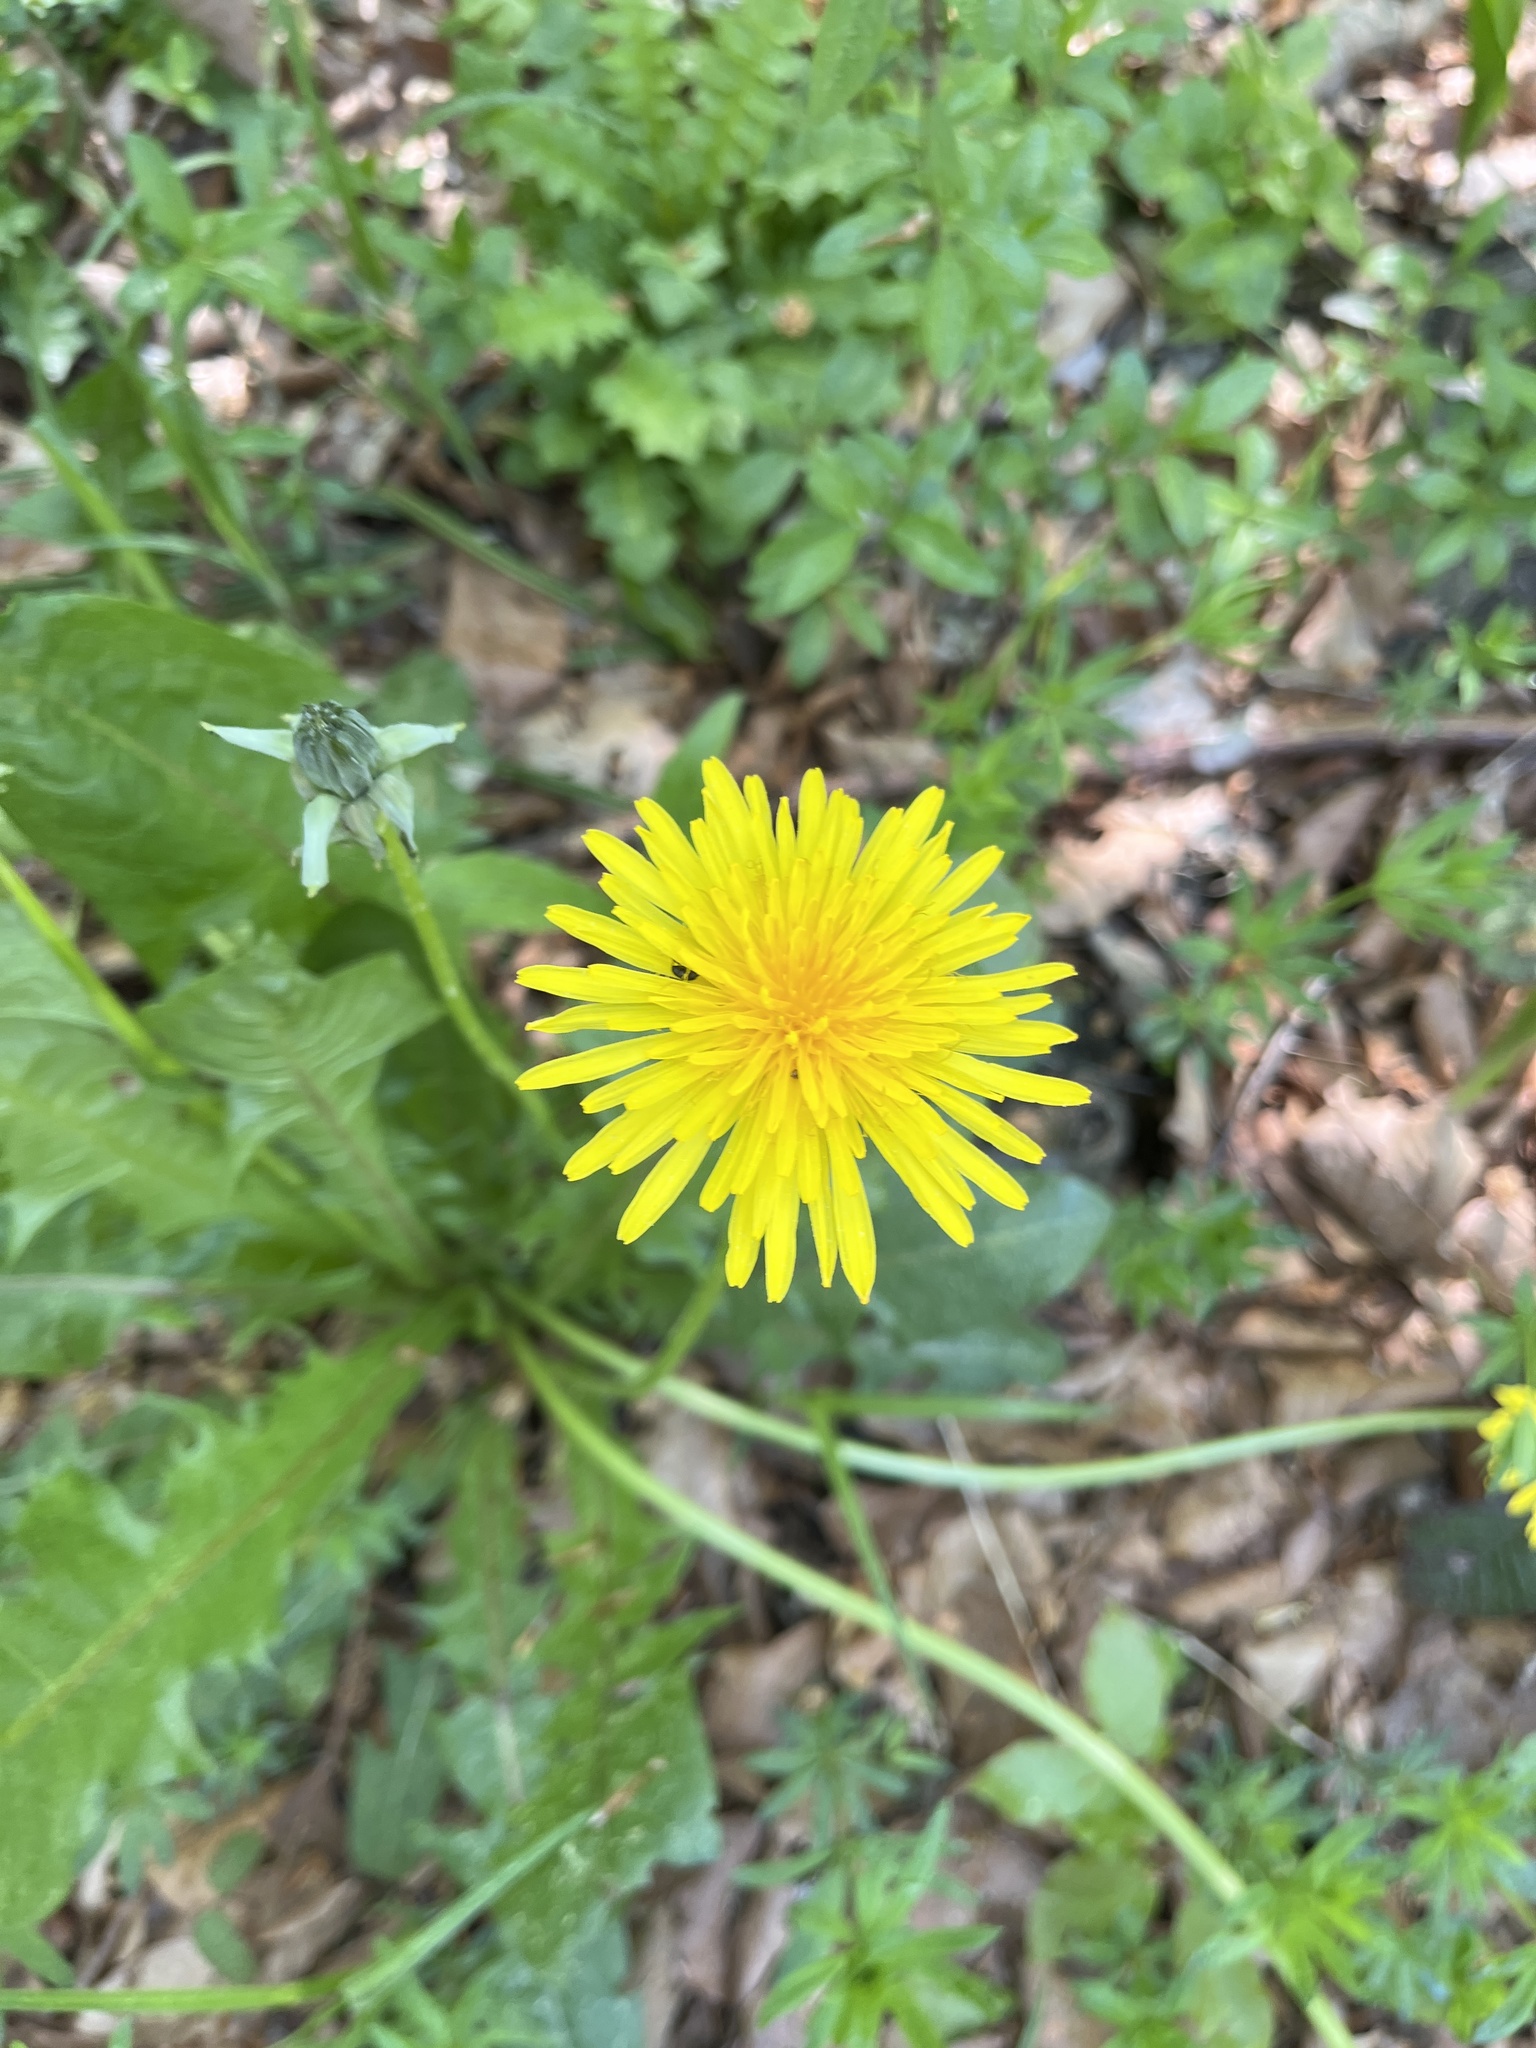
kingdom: Plantae
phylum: Tracheophyta
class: Magnoliopsida
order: Asterales
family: Asteraceae
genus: Taraxacum
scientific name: Taraxacum officinale
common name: Common dandelion
